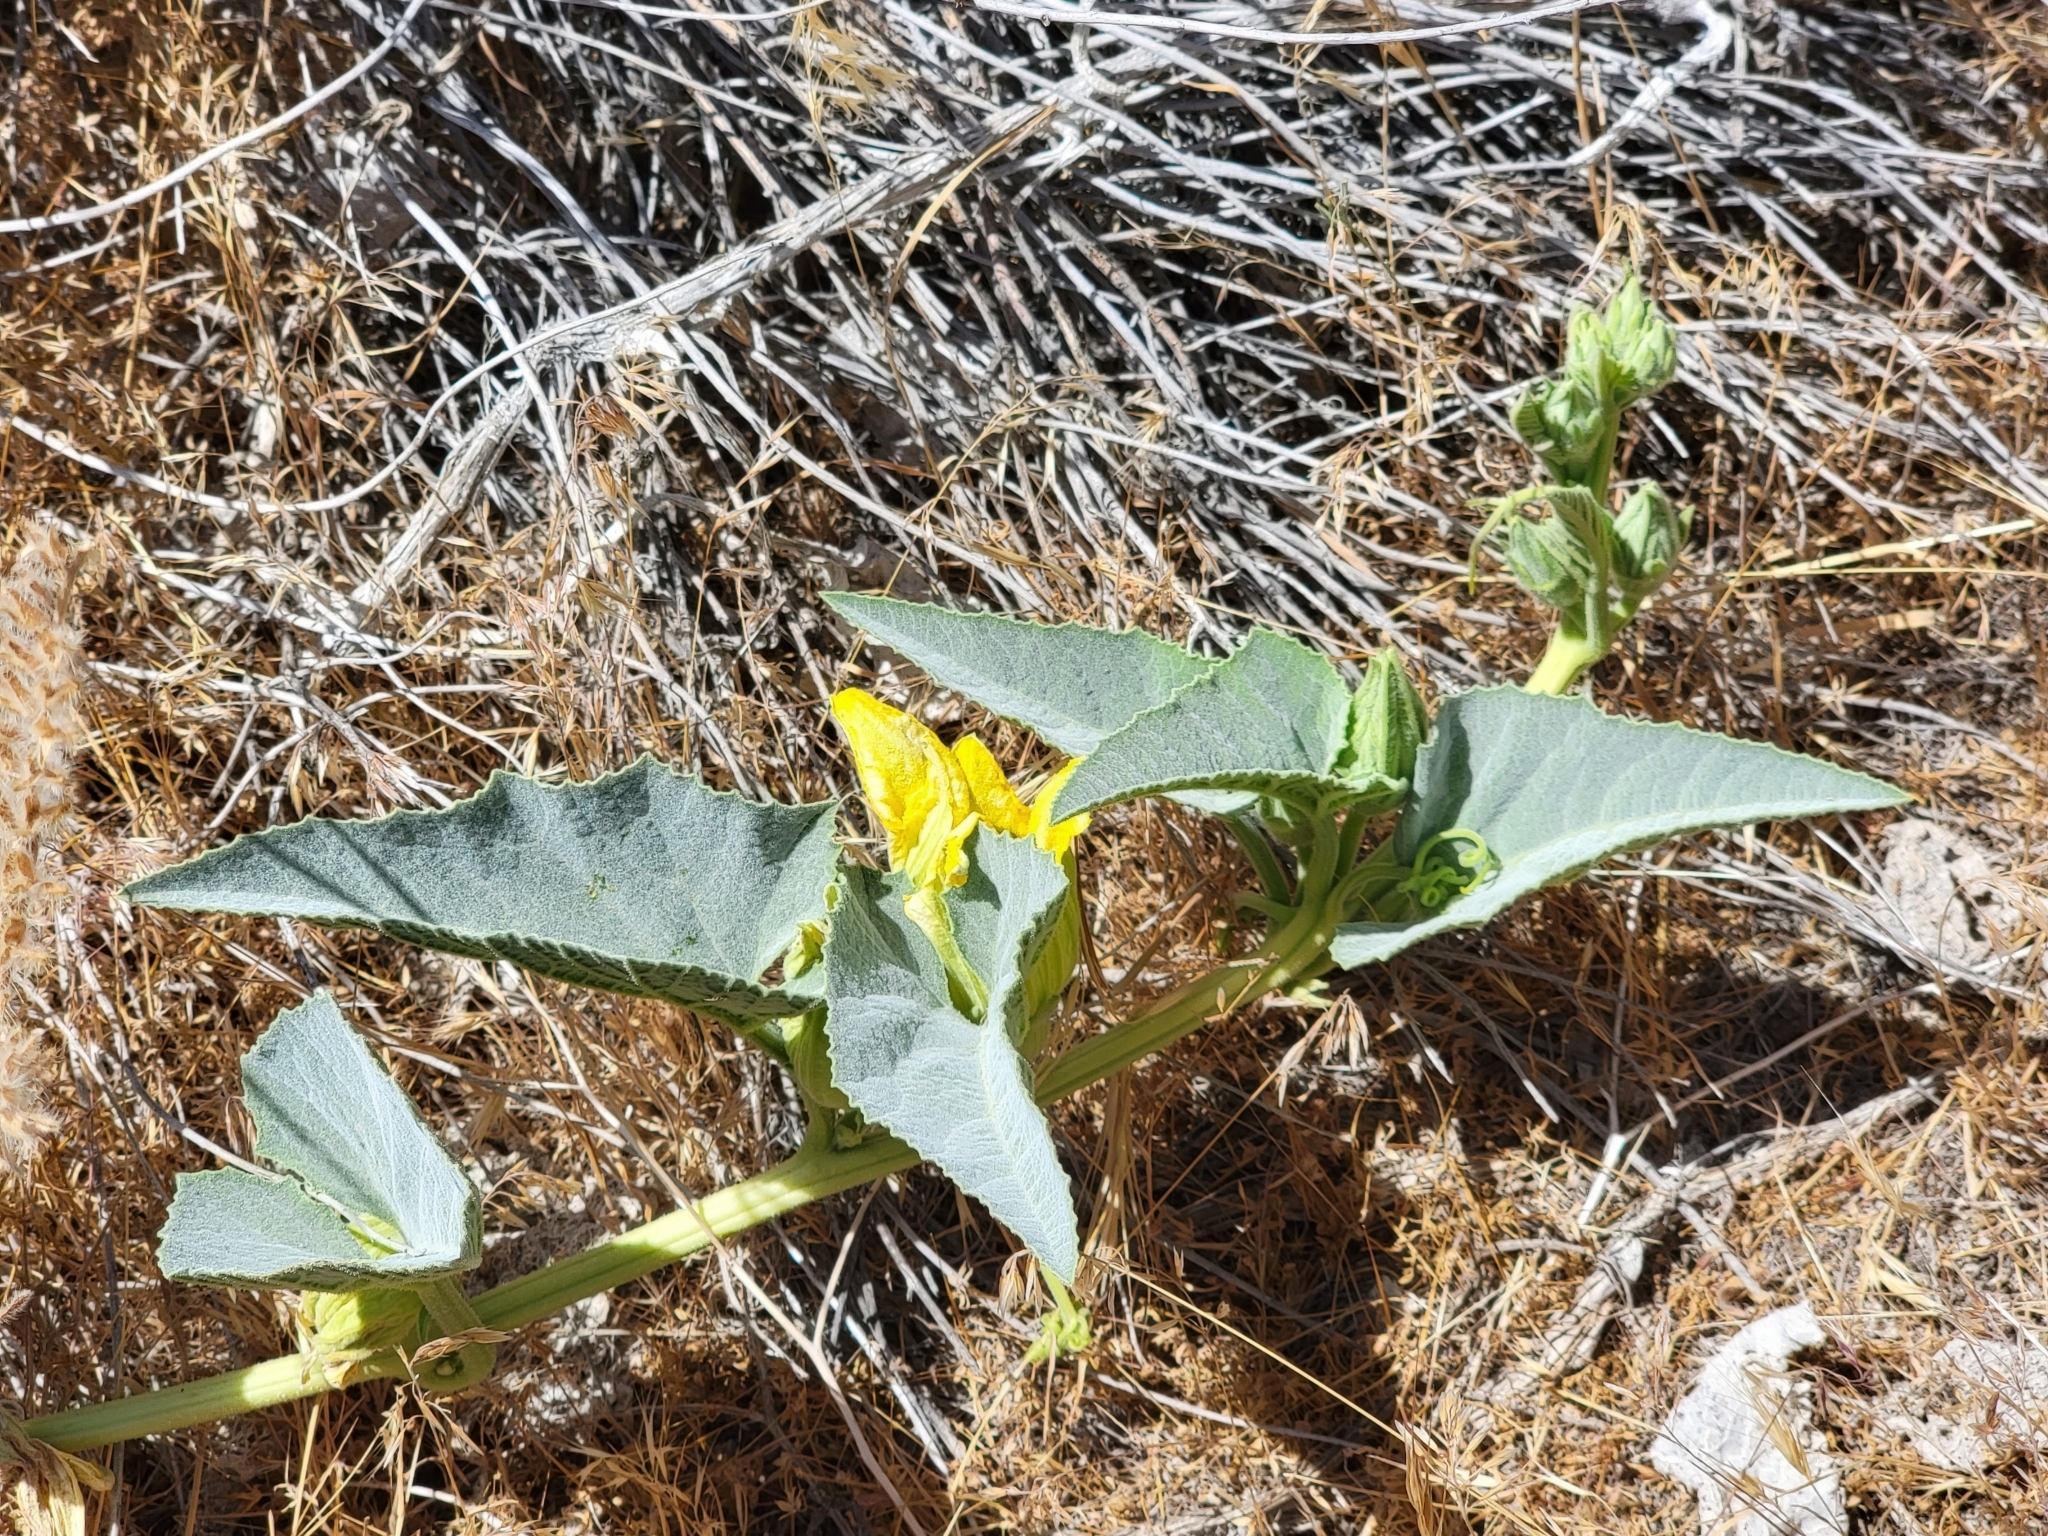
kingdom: Plantae
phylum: Tracheophyta
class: Magnoliopsida
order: Cucurbitales
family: Cucurbitaceae
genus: Cucurbita
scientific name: Cucurbita foetidissima
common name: Buffalo gourd
